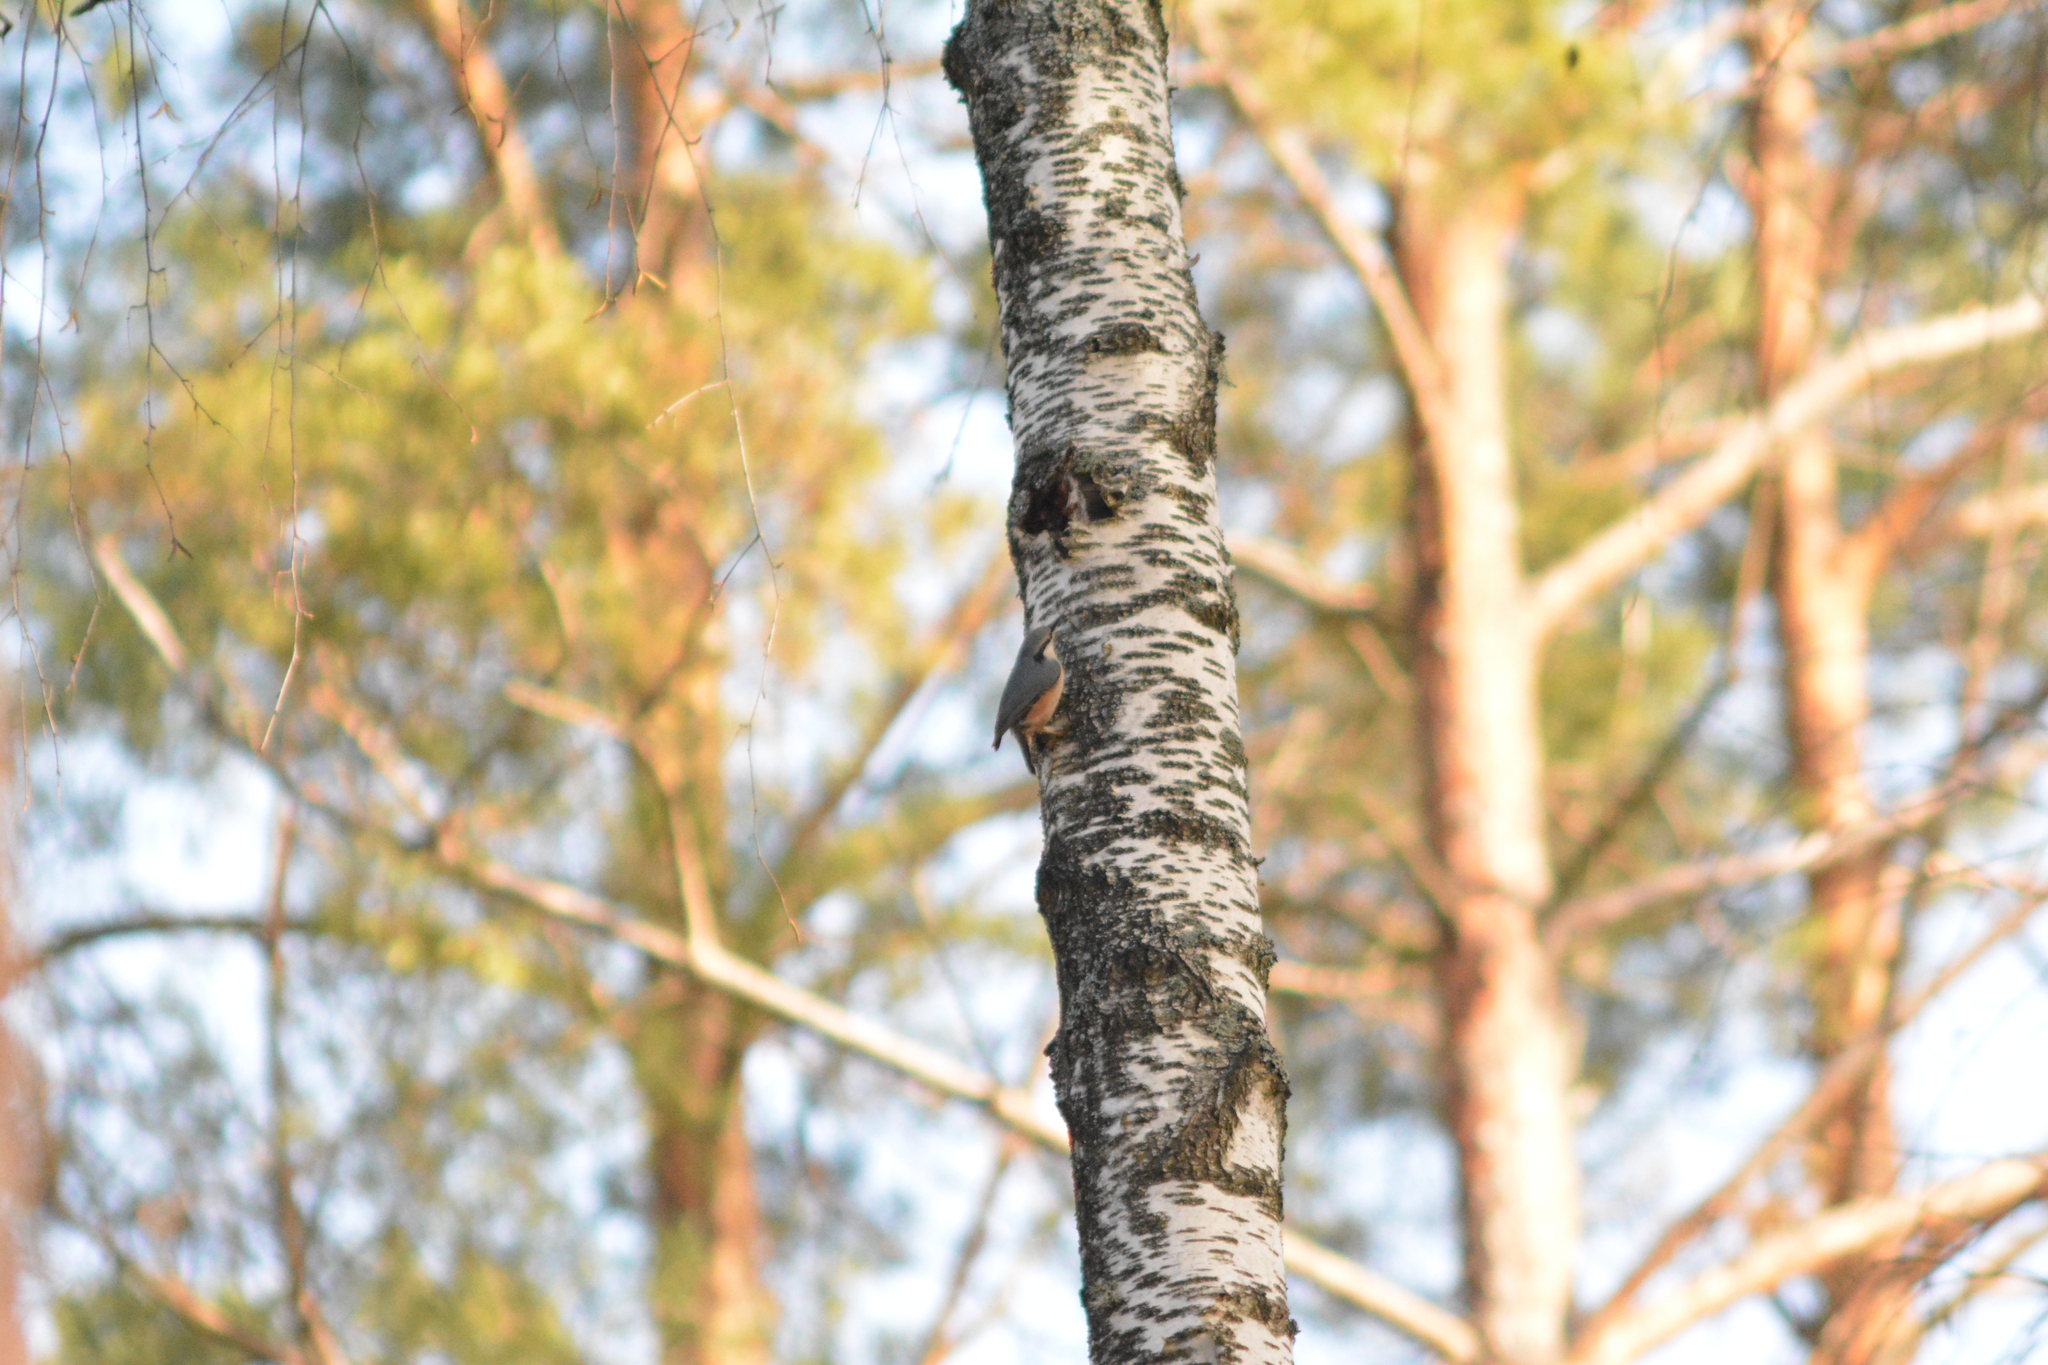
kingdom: Animalia
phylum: Chordata
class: Aves
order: Passeriformes
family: Sittidae
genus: Sitta
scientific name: Sitta europaea
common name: Eurasian nuthatch
